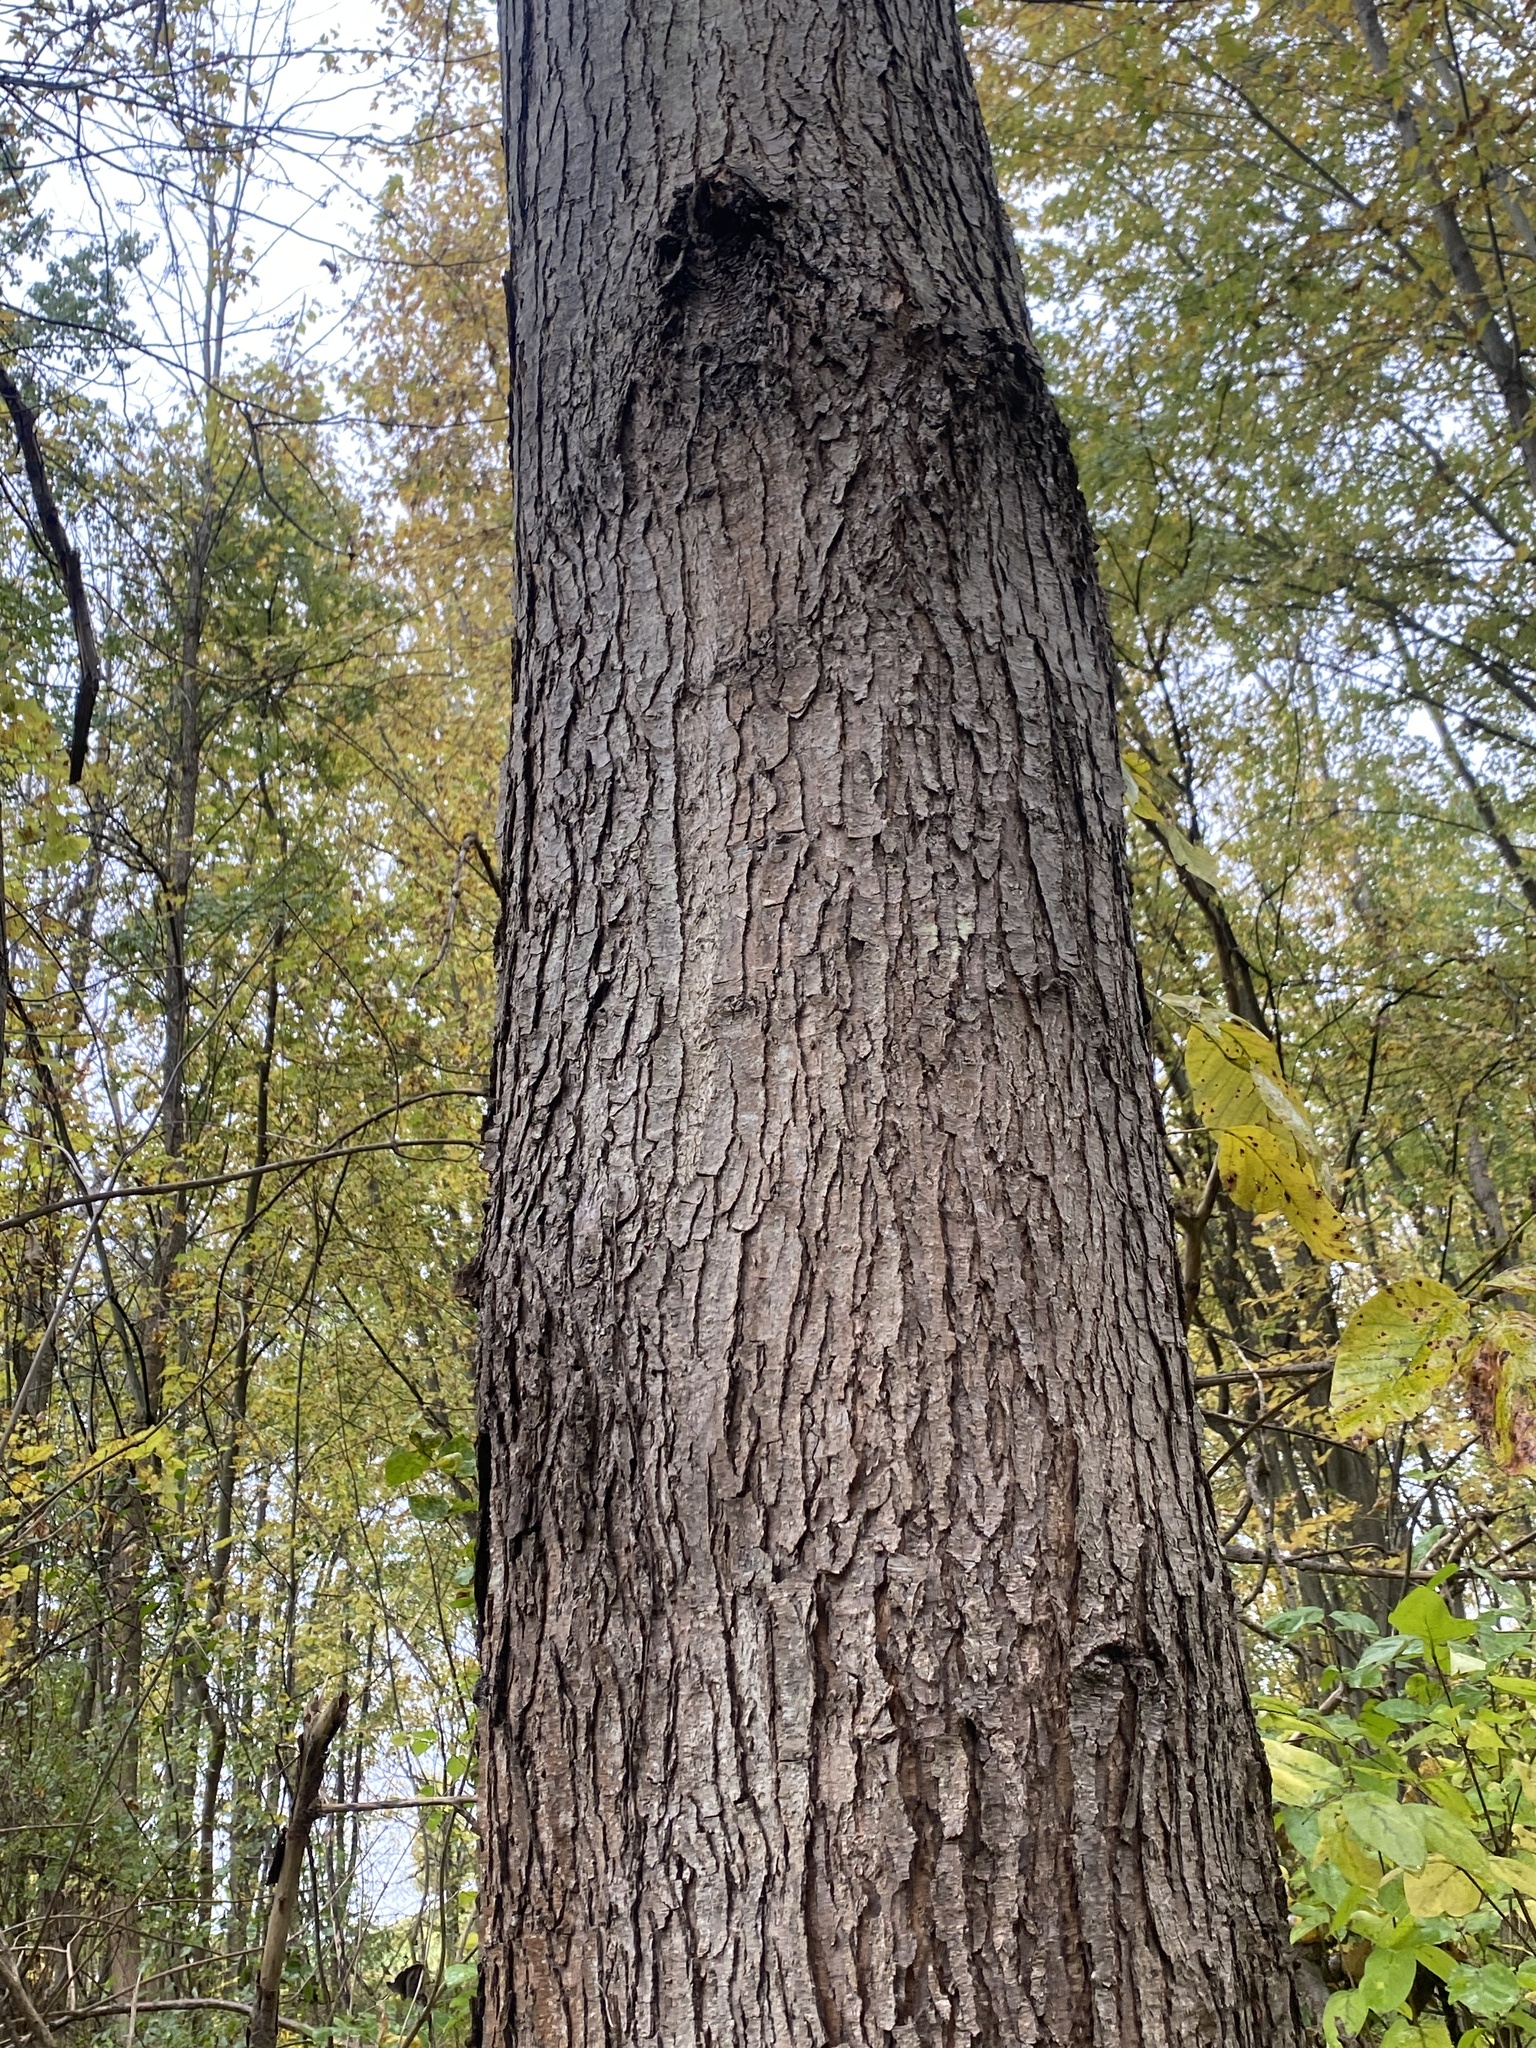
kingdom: Plantae
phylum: Tracheophyta
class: Magnoliopsida
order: Sapindales
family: Sapindaceae
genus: Acer
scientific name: Acer saccharinum
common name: Silver maple
